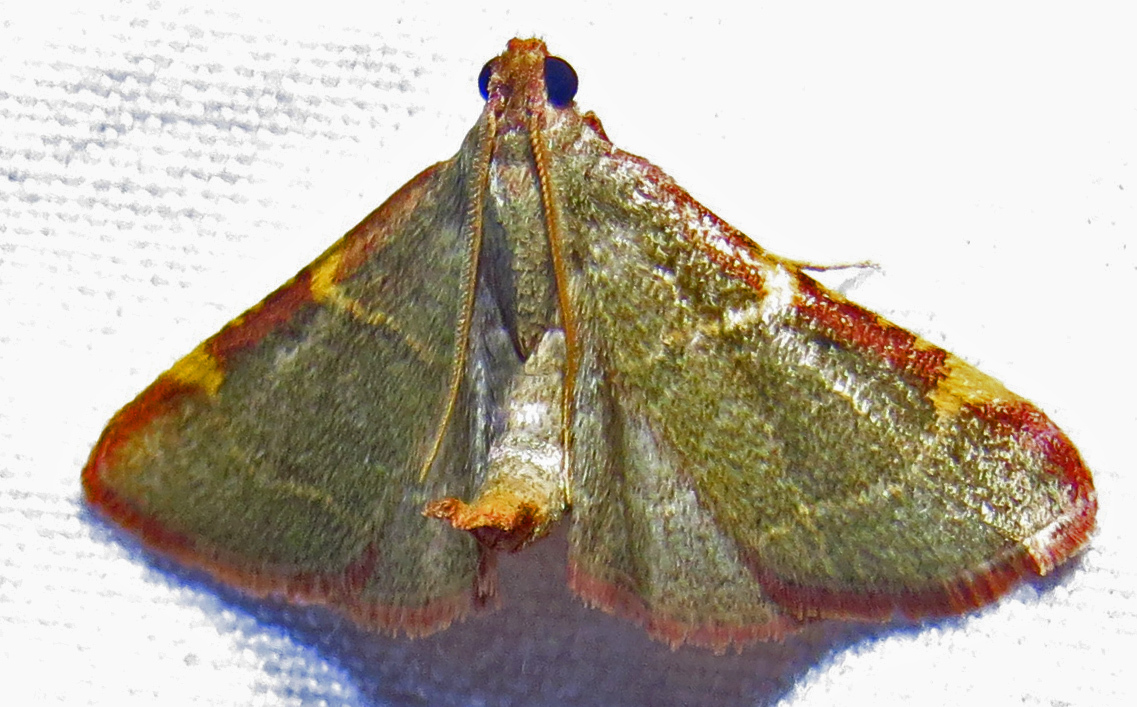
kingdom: Animalia
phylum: Arthropoda
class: Insecta
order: Lepidoptera
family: Pyralidae
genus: Hypsopygia
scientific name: Hypsopygia binodulalis
